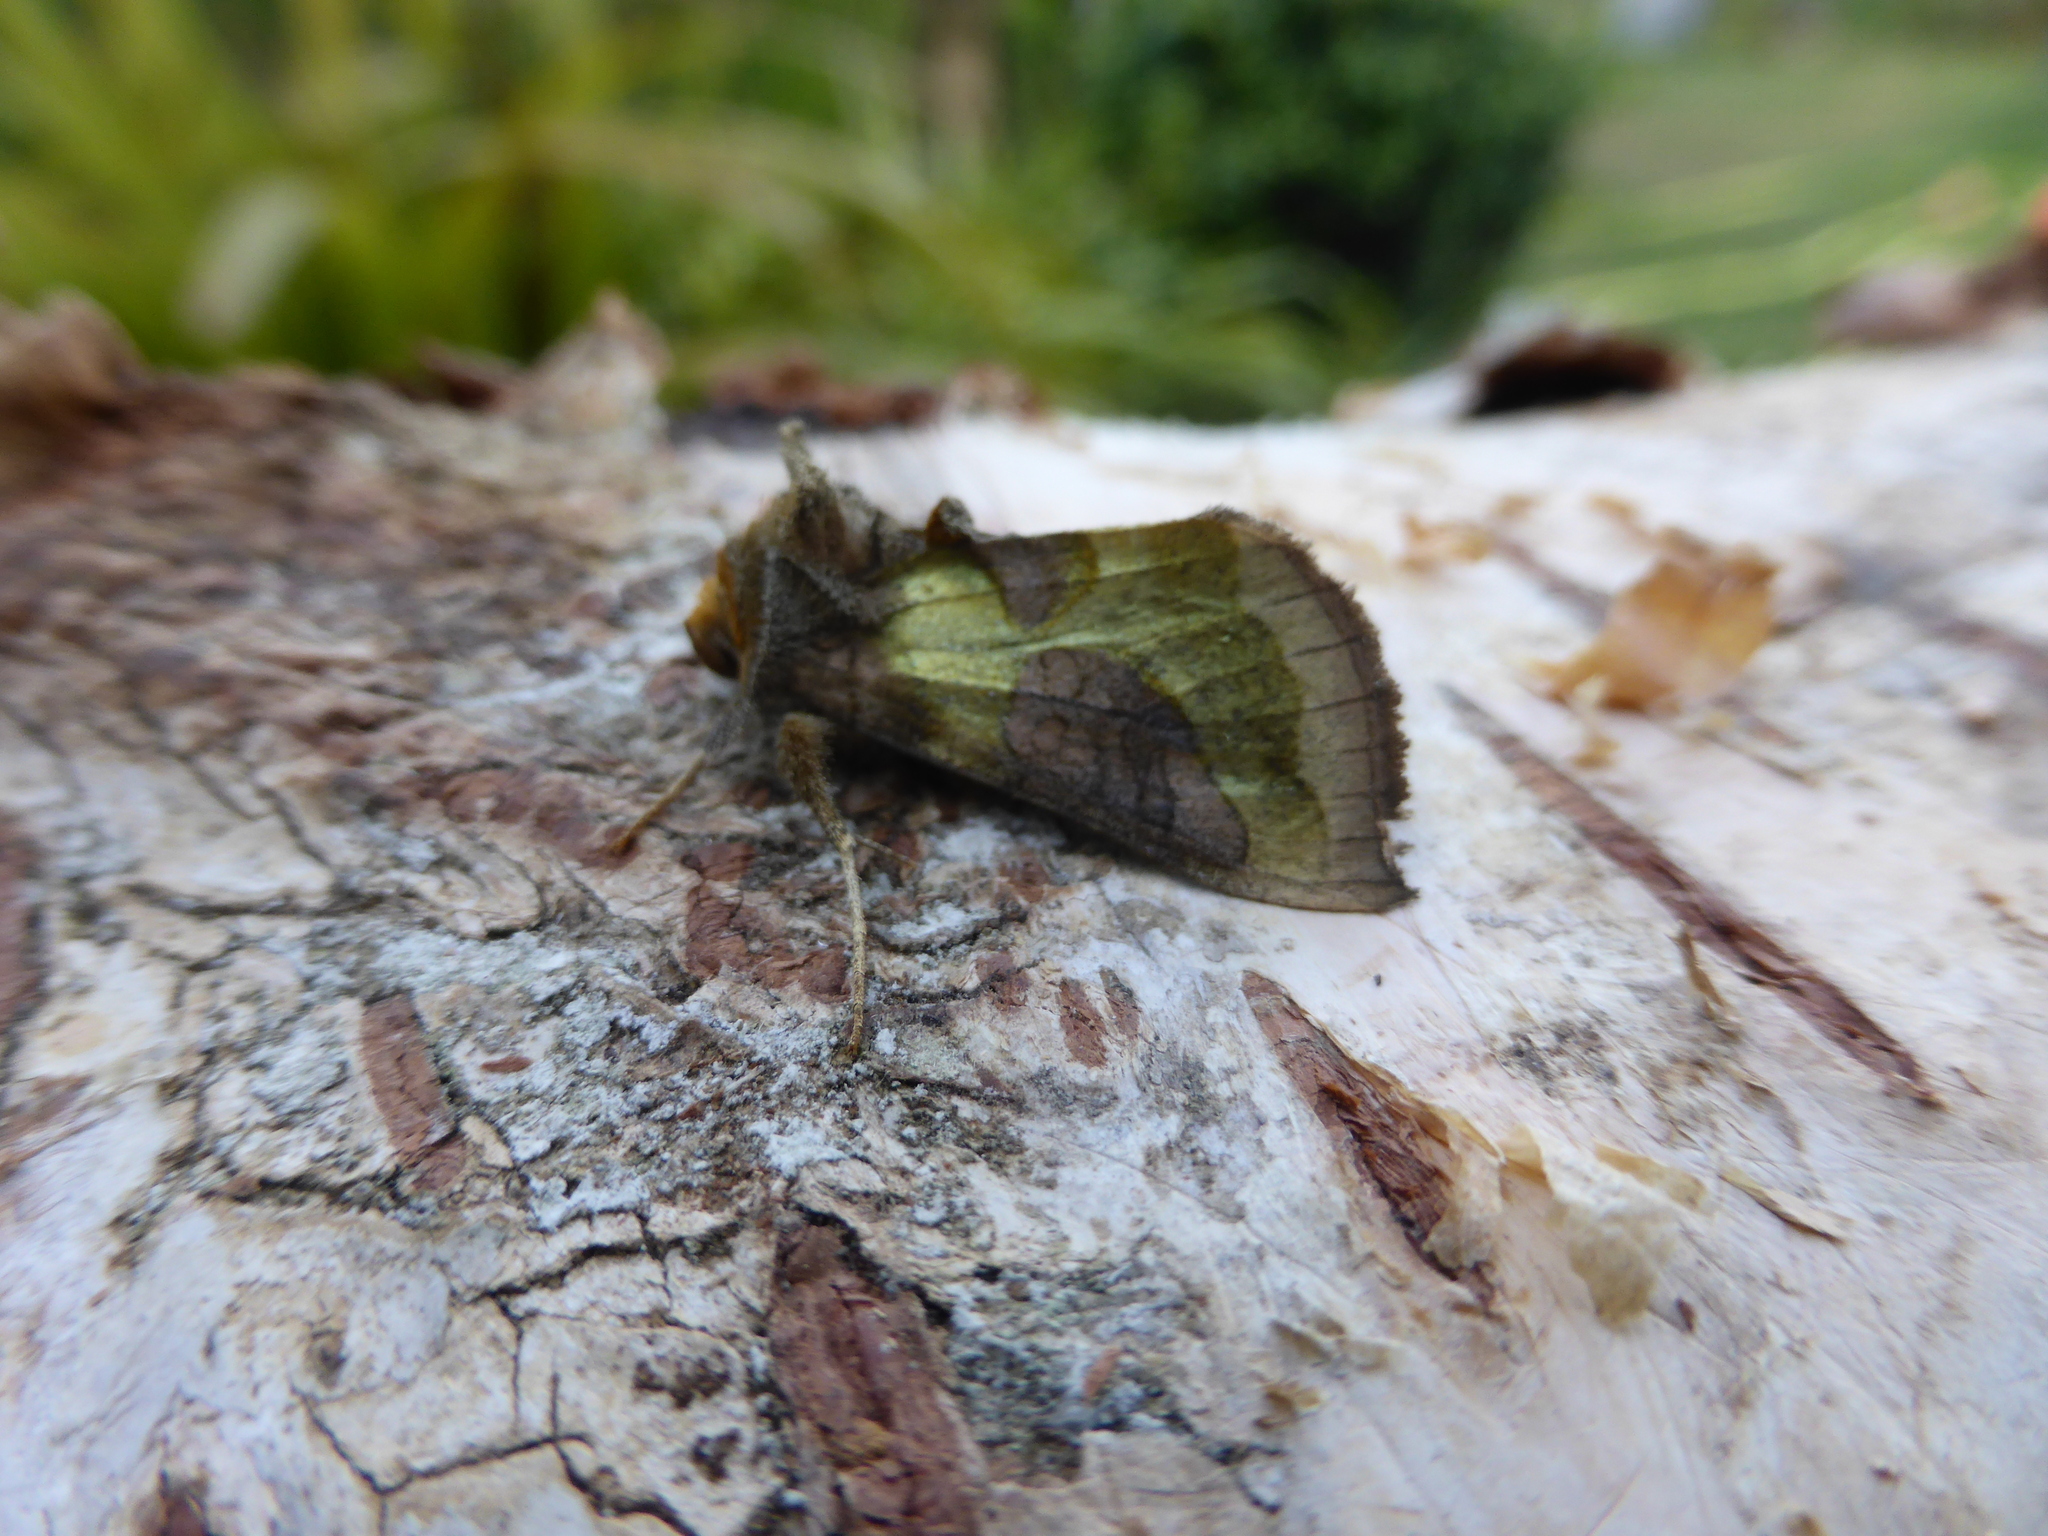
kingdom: Animalia
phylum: Arthropoda
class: Insecta
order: Lepidoptera
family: Noctuidae
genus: Diachrysia
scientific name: Diachrysia chrysitis
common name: Burnished brass
